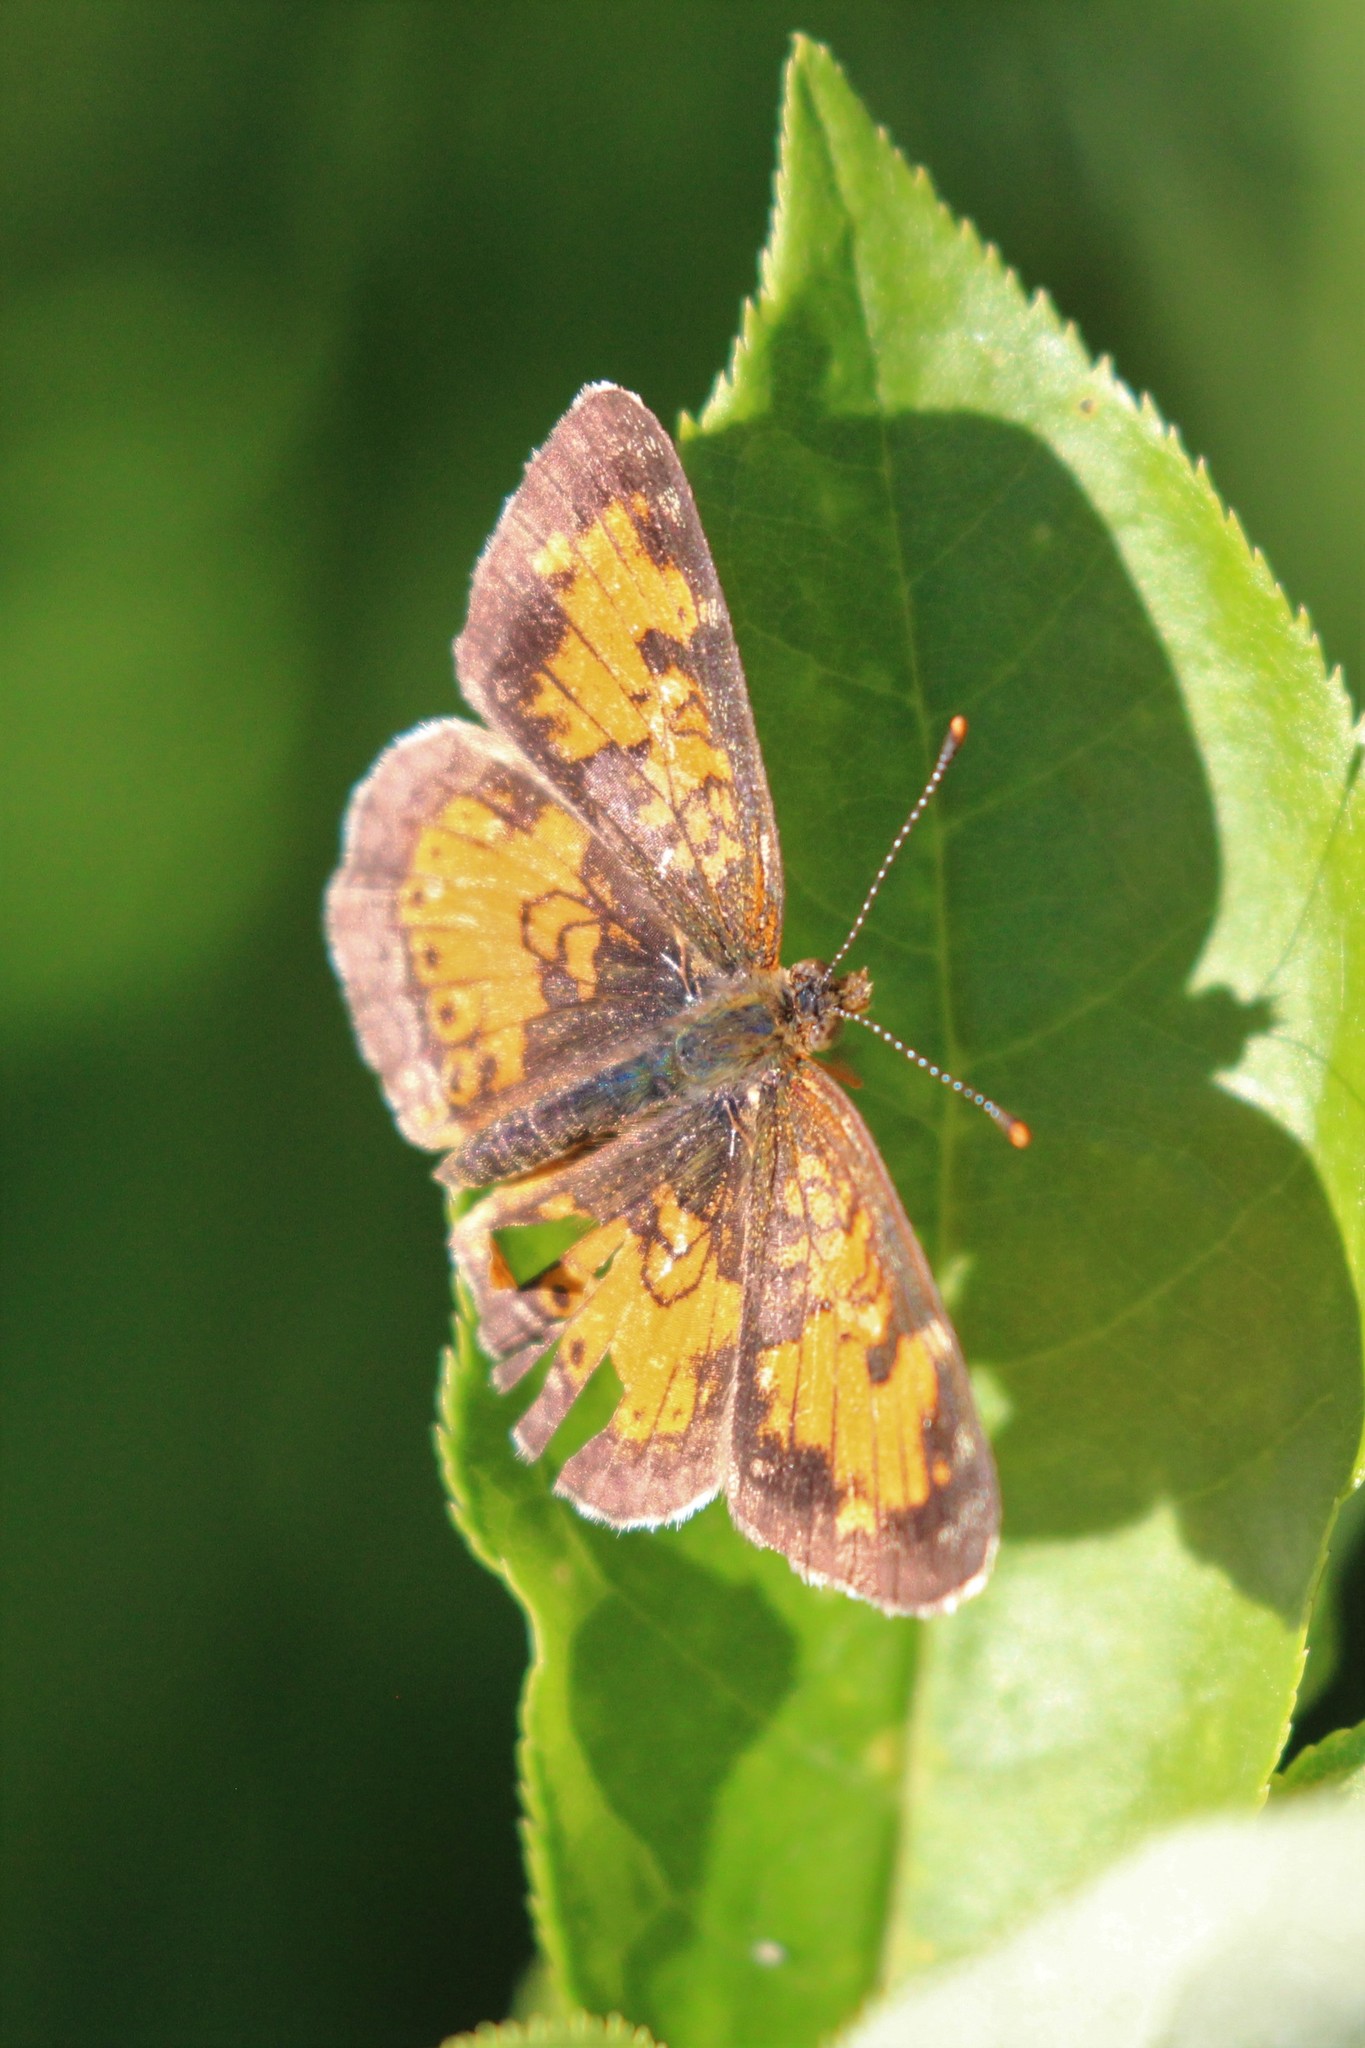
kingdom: Animalia
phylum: Arthropoda
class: Insecta
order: Lepidoptera
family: Nymphalidae
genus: Phyciodes
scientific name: Phyciodes tharos
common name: Pearl crescent
